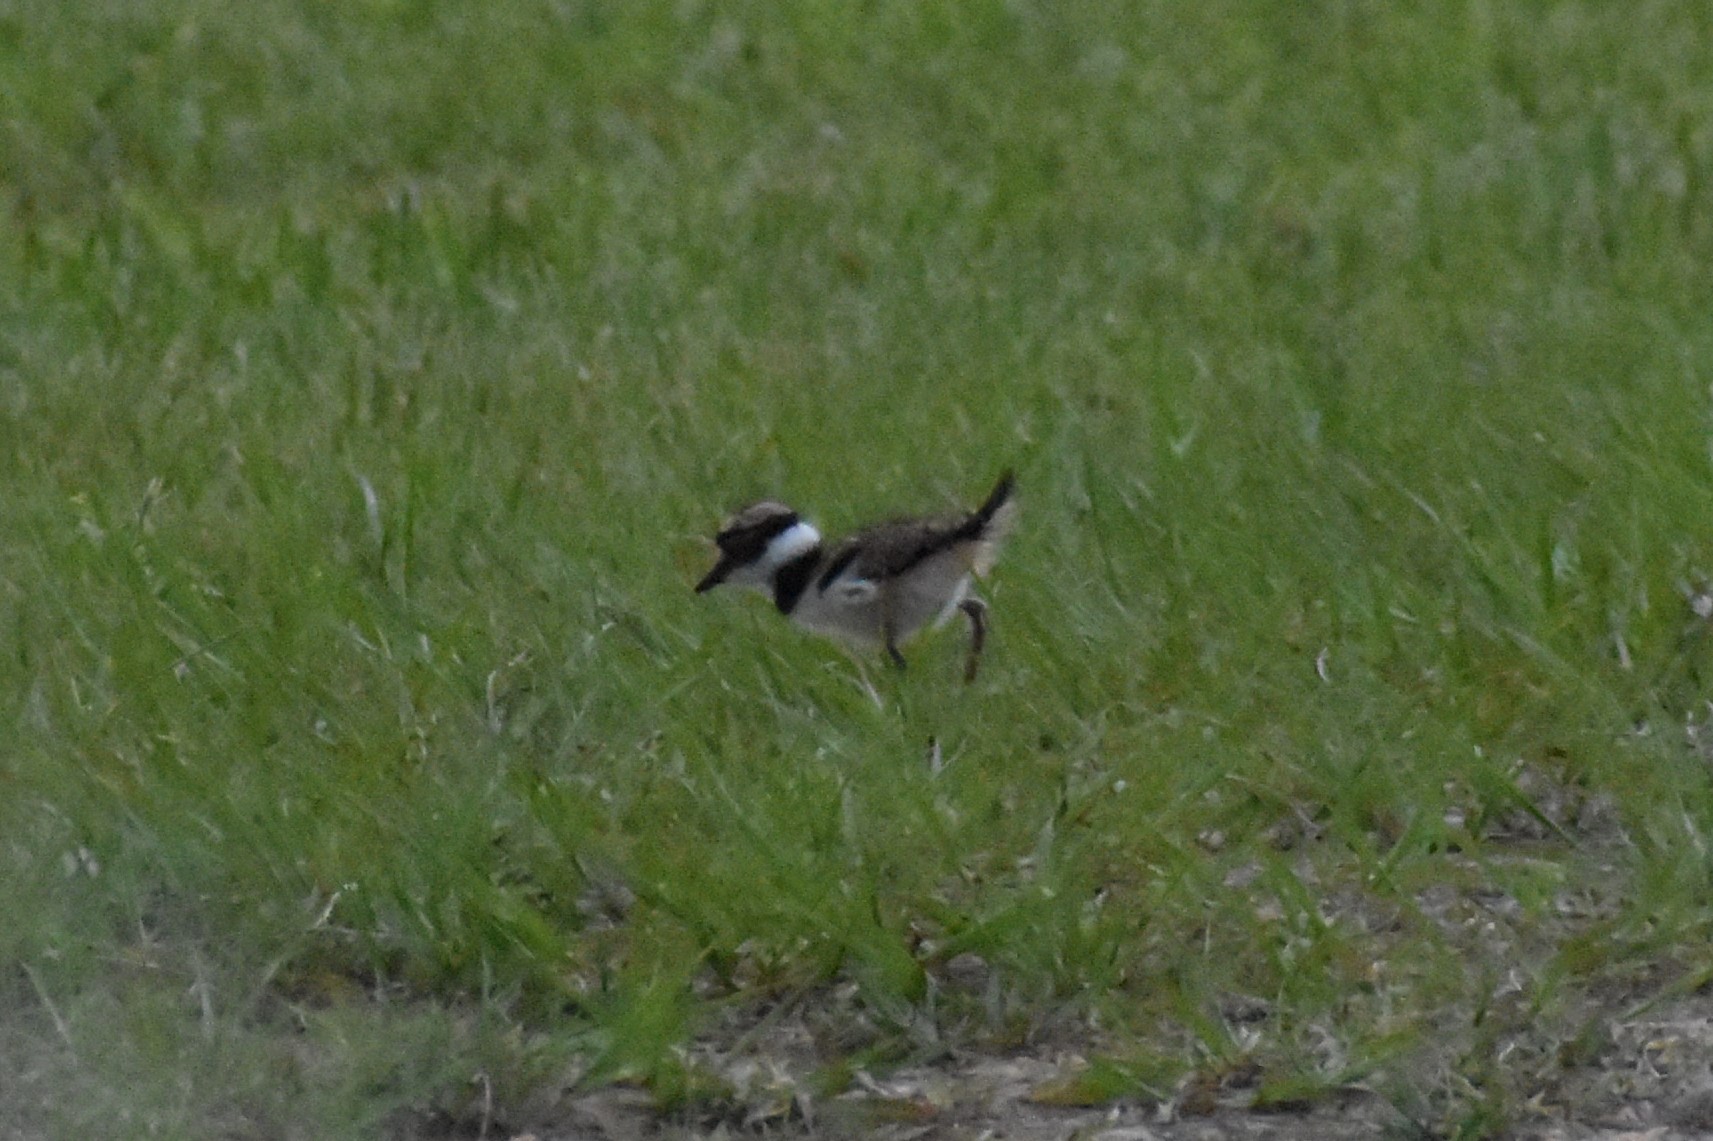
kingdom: Animalia
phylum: Chordata
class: Aves
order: Charadriiformes
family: Charadriidae
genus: Charadrius
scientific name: Charadrius vociferus
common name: Killdeer
